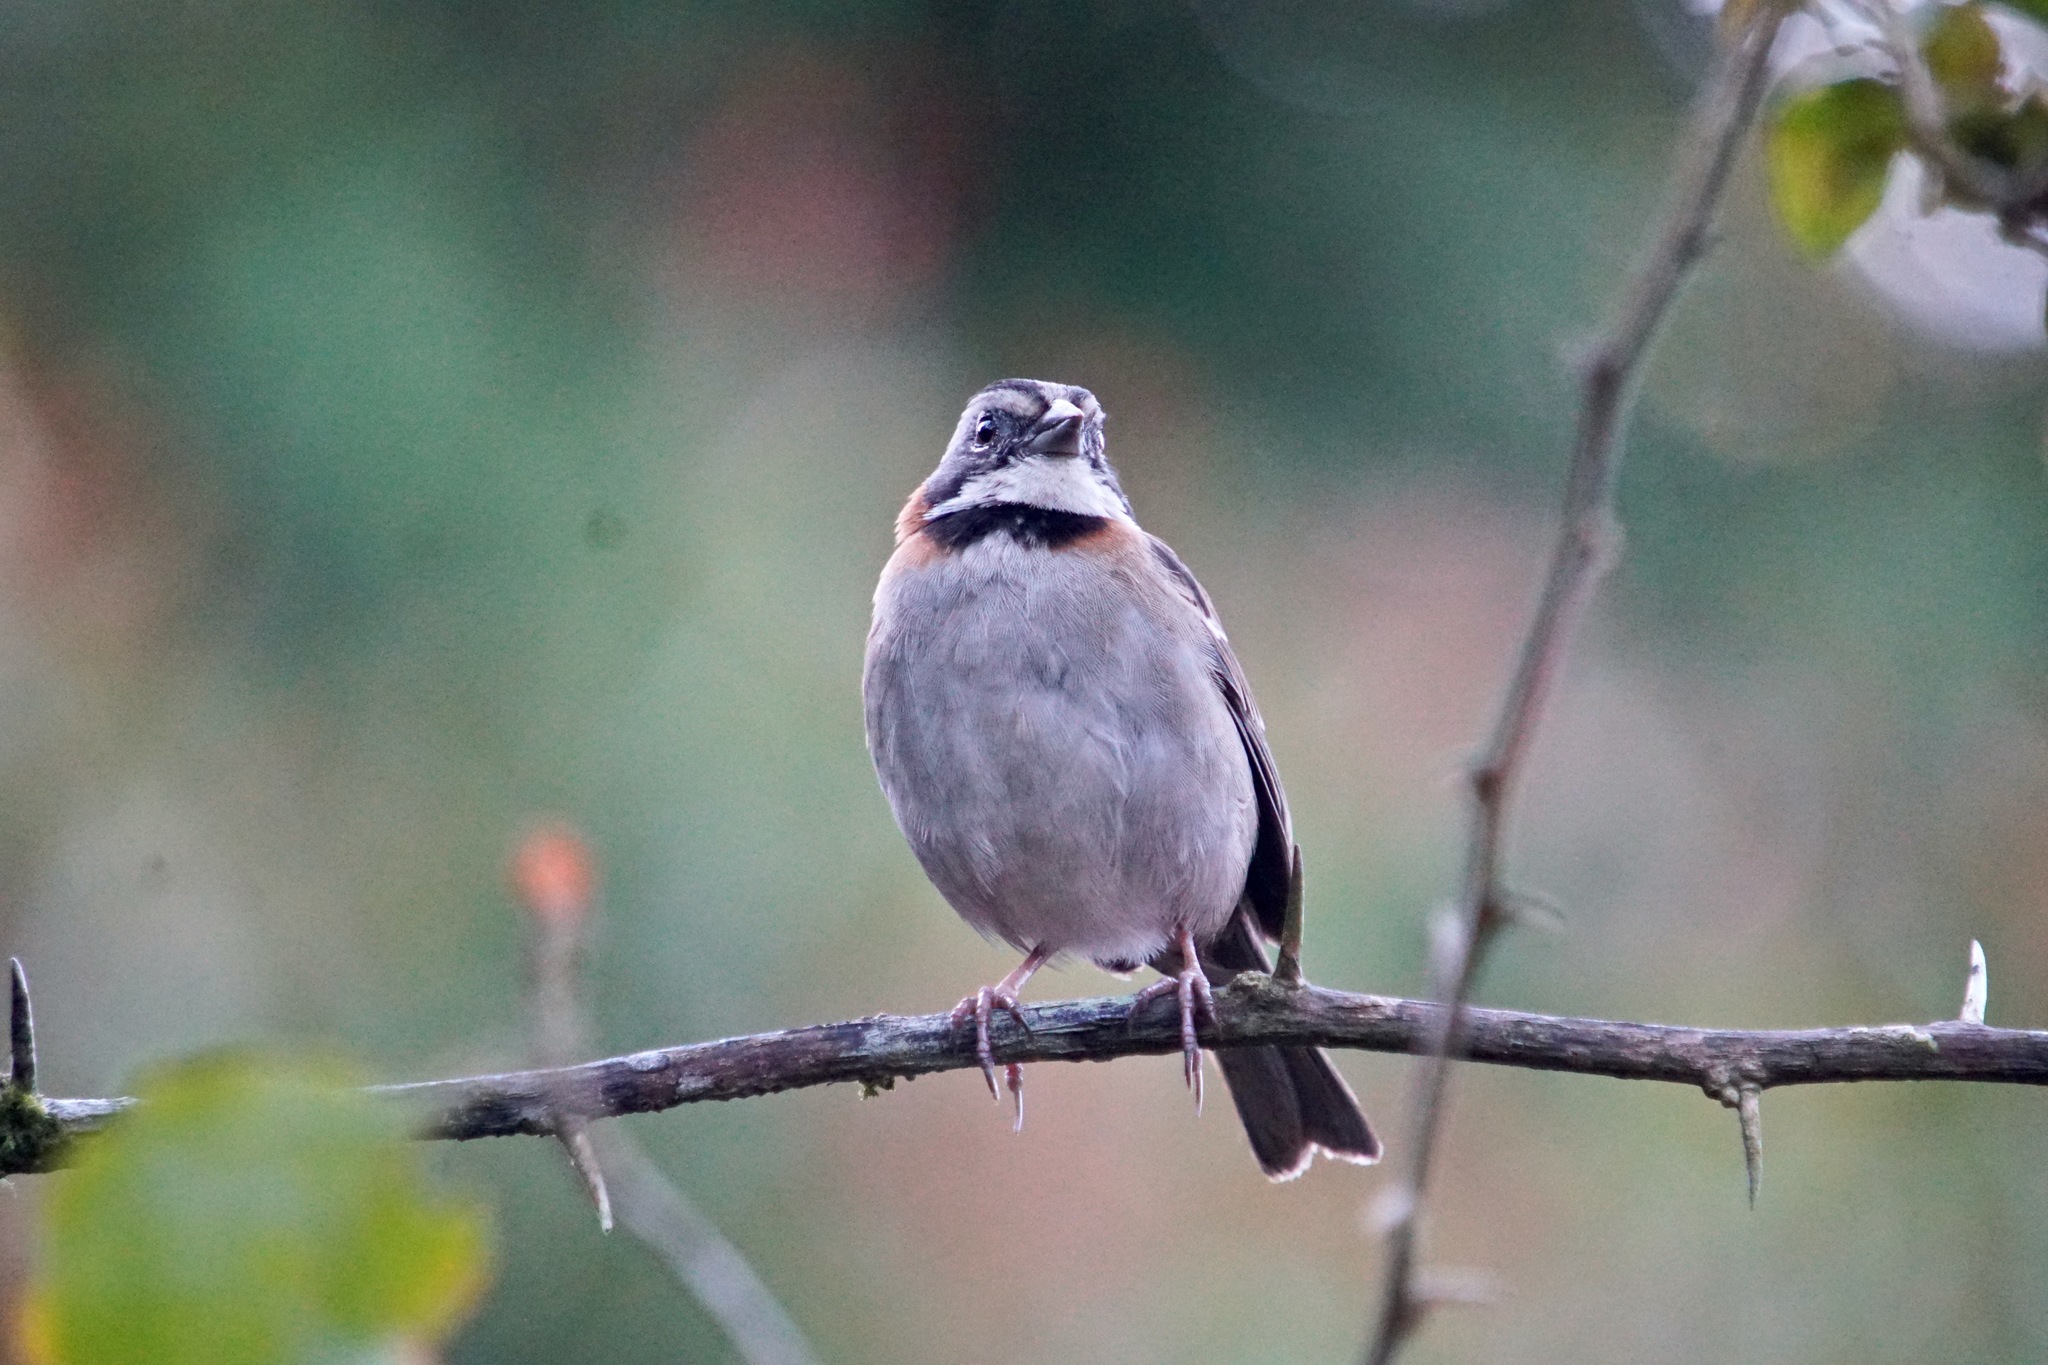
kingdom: Animalia
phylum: Chordata
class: Aves
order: Passeriformes
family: Passerellidae
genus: Zonotrichia
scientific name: Zonotrichia capensis
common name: Rufous-collared sparrow
